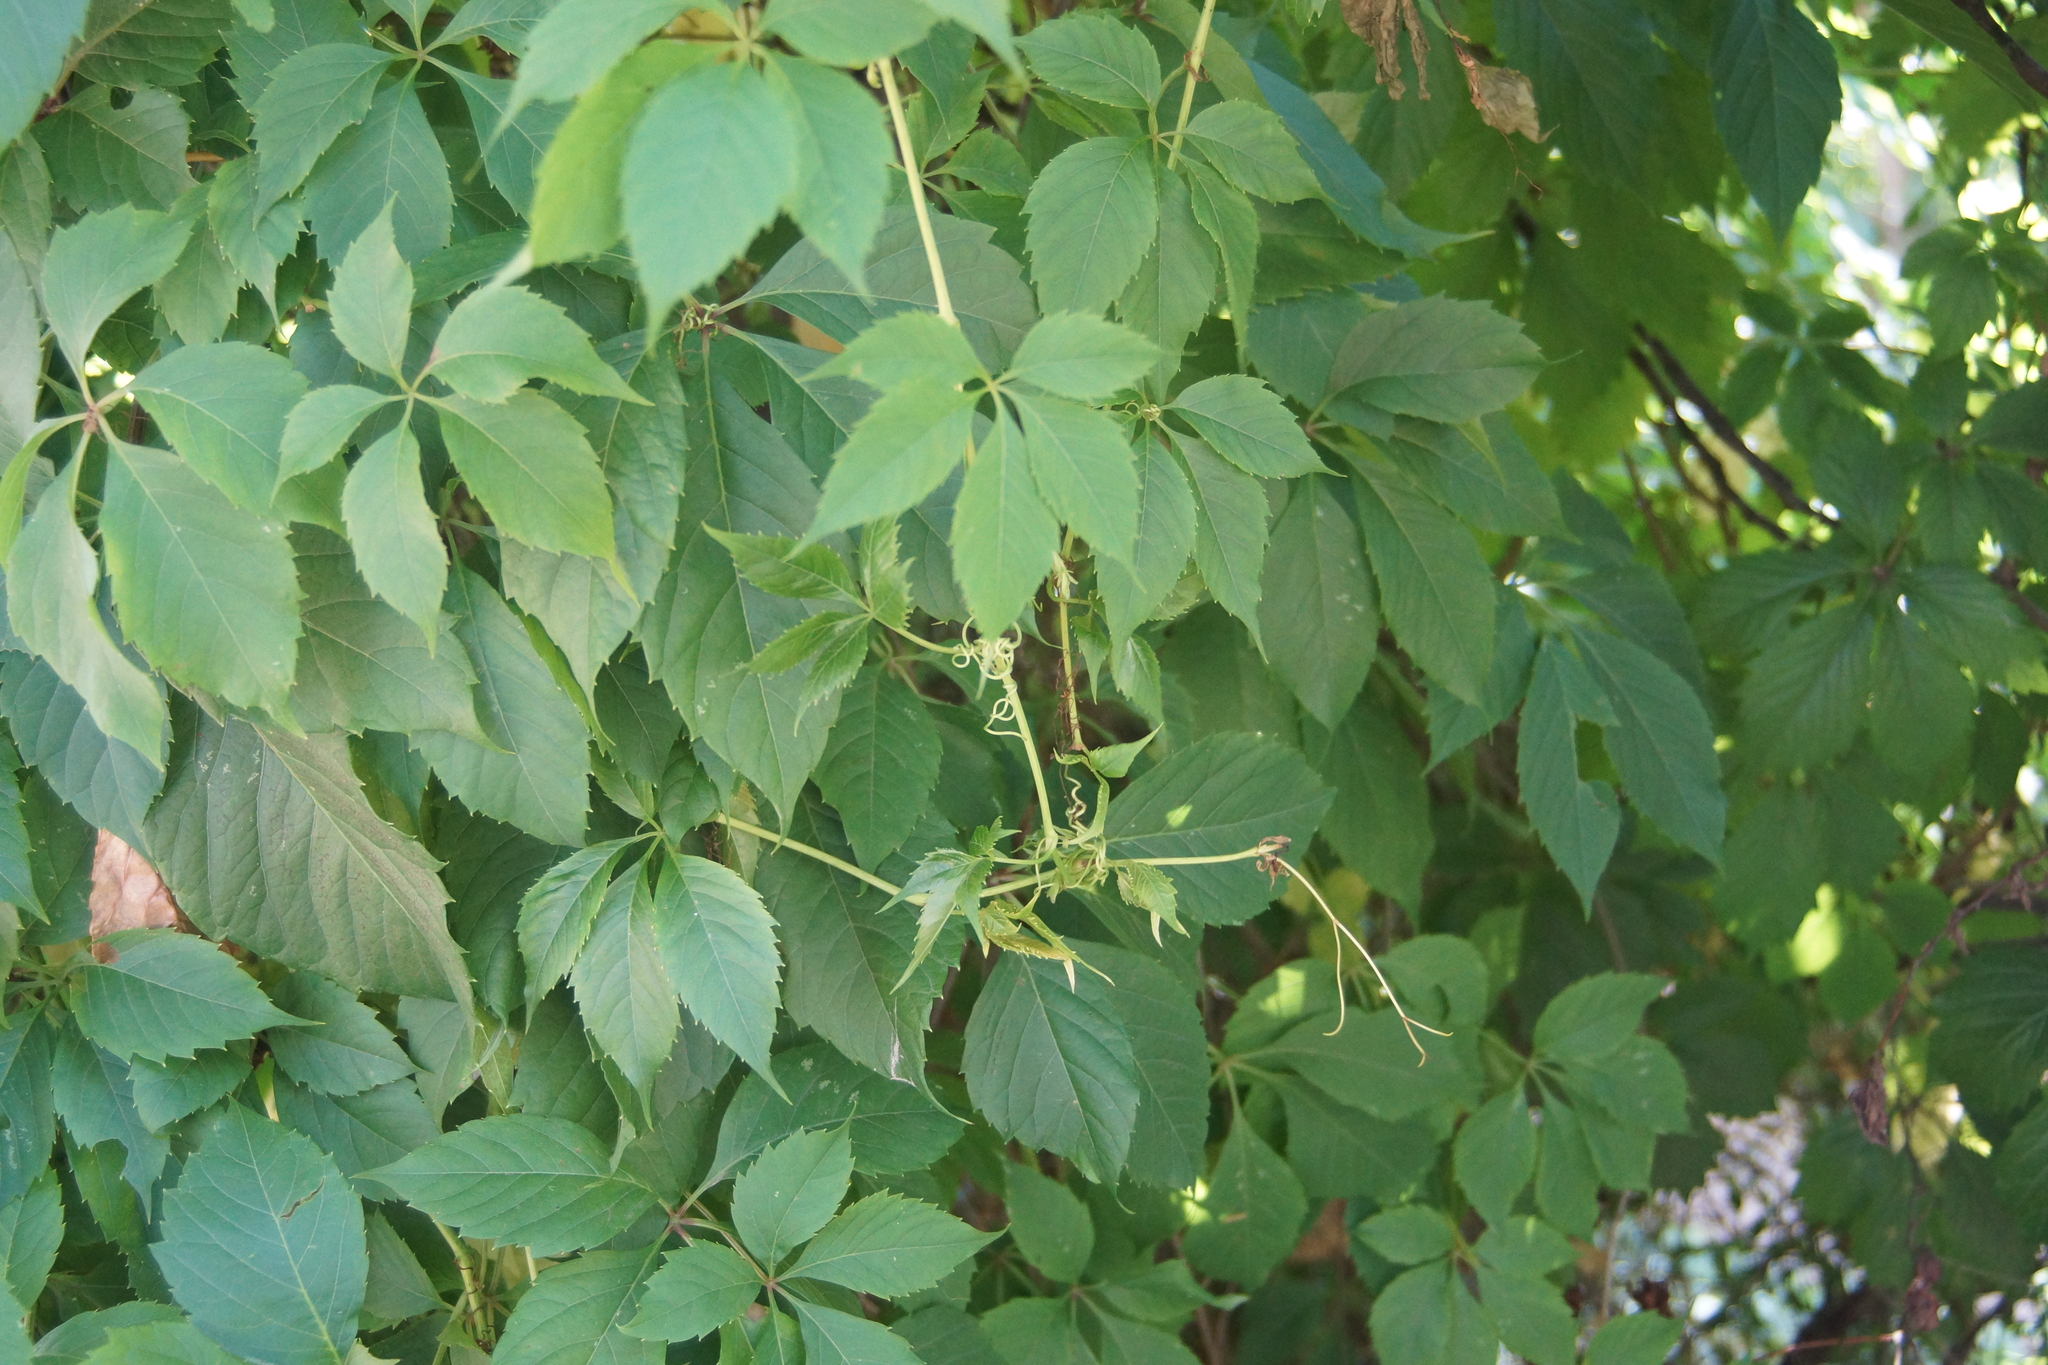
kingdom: Plantae
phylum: Tracheophyta
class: Magnoliopsida
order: Vitales
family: Vitaceae
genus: Parthenocissus
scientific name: Parthenocissus inserta
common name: False virginia-creeper
